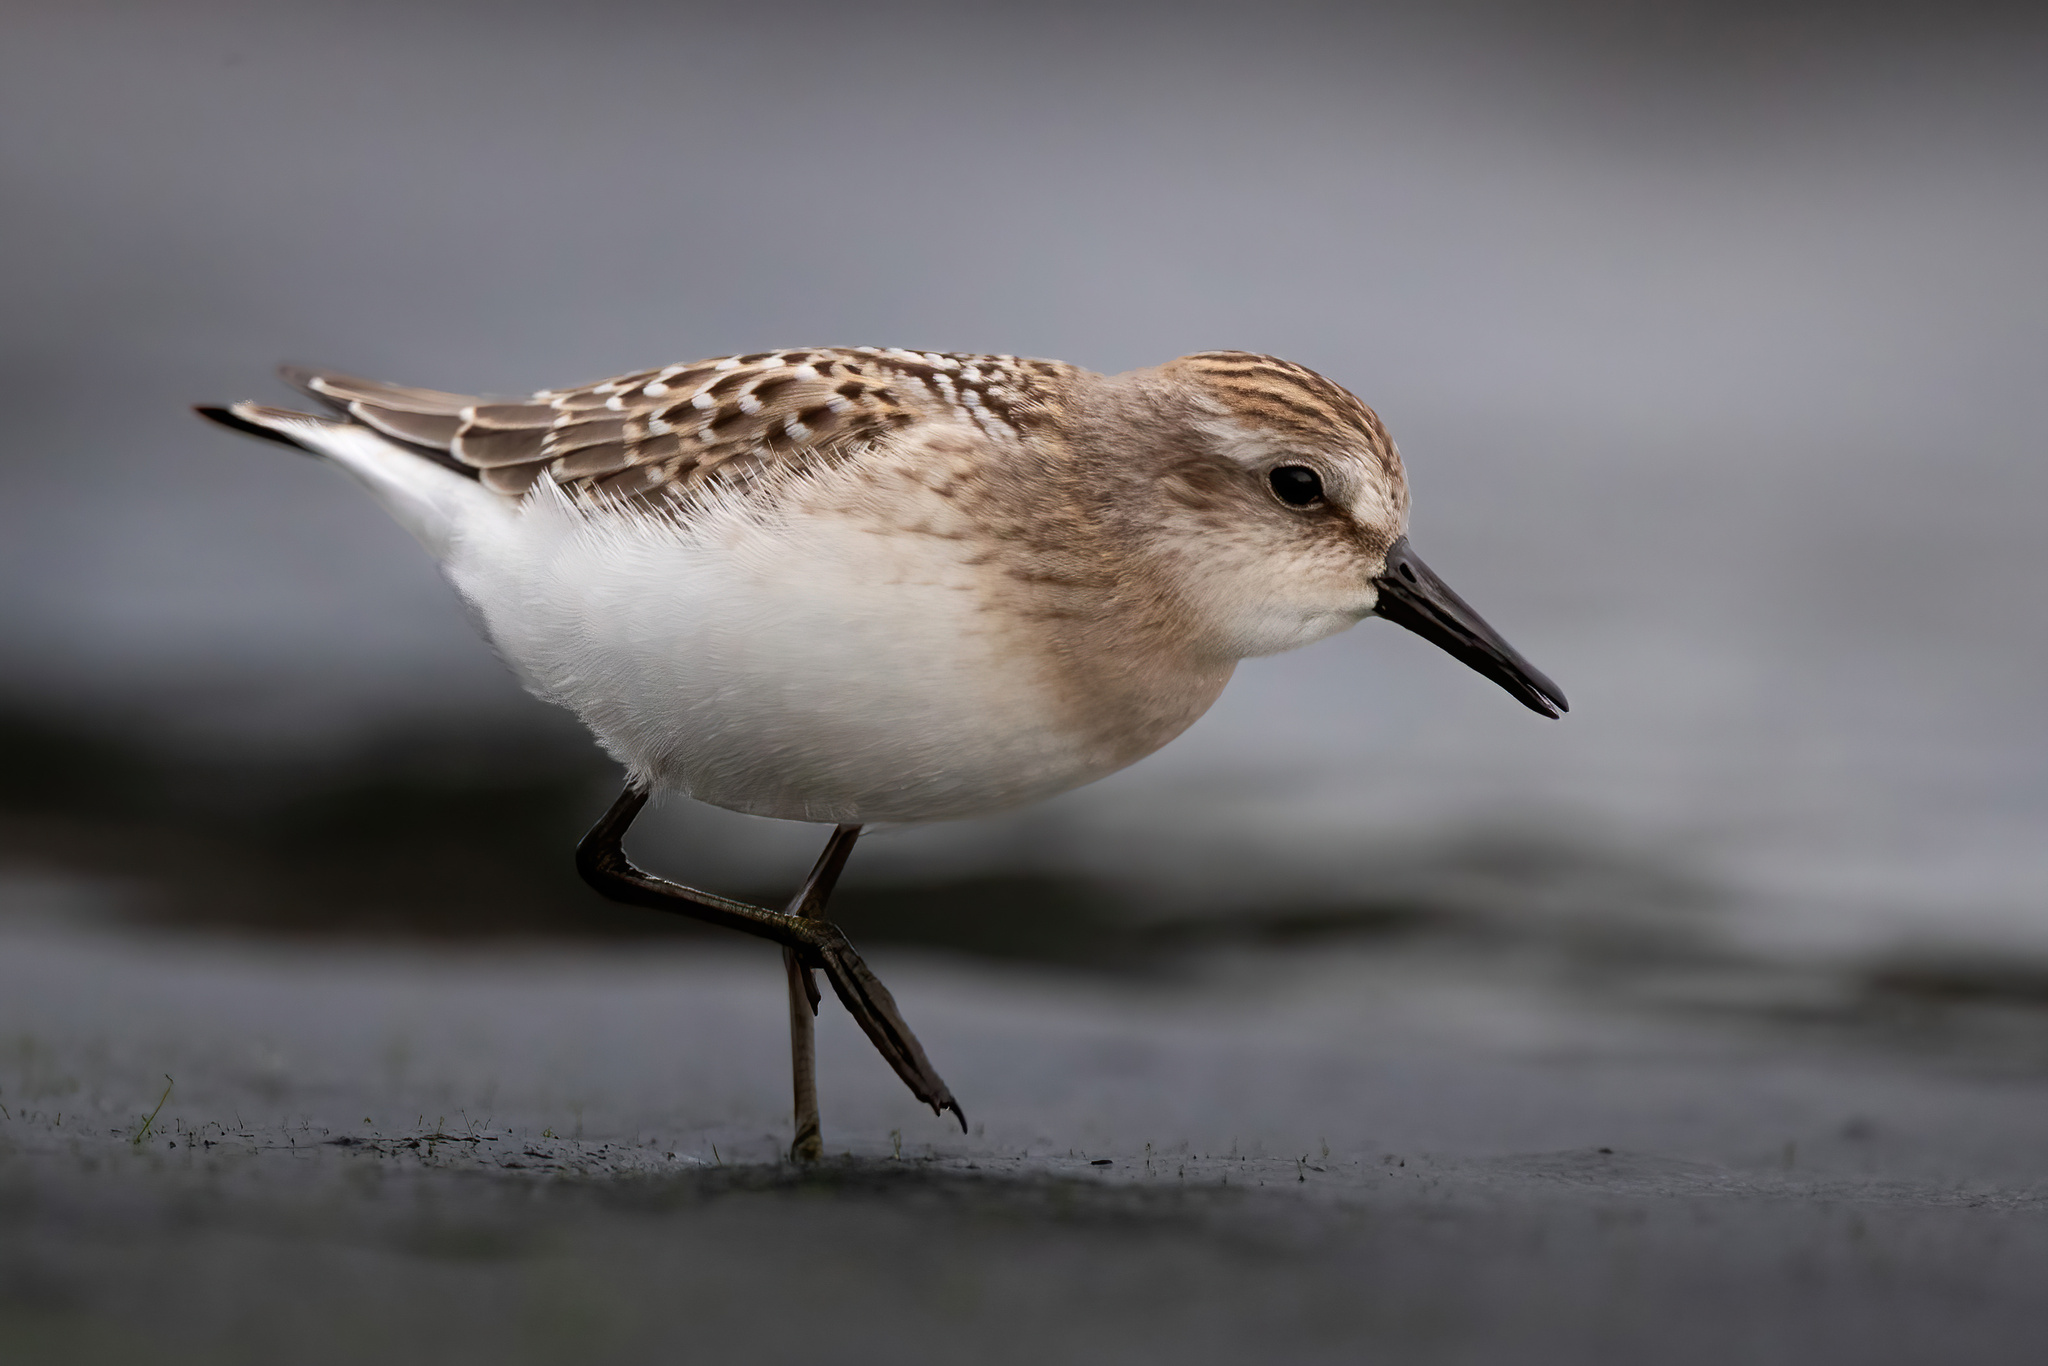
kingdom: Animalia
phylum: Chordata
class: Aves
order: Charadriiformes
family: Scolopacidae
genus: Calidris
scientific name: Calidris pusilla
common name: Semipalmated sandpiper
